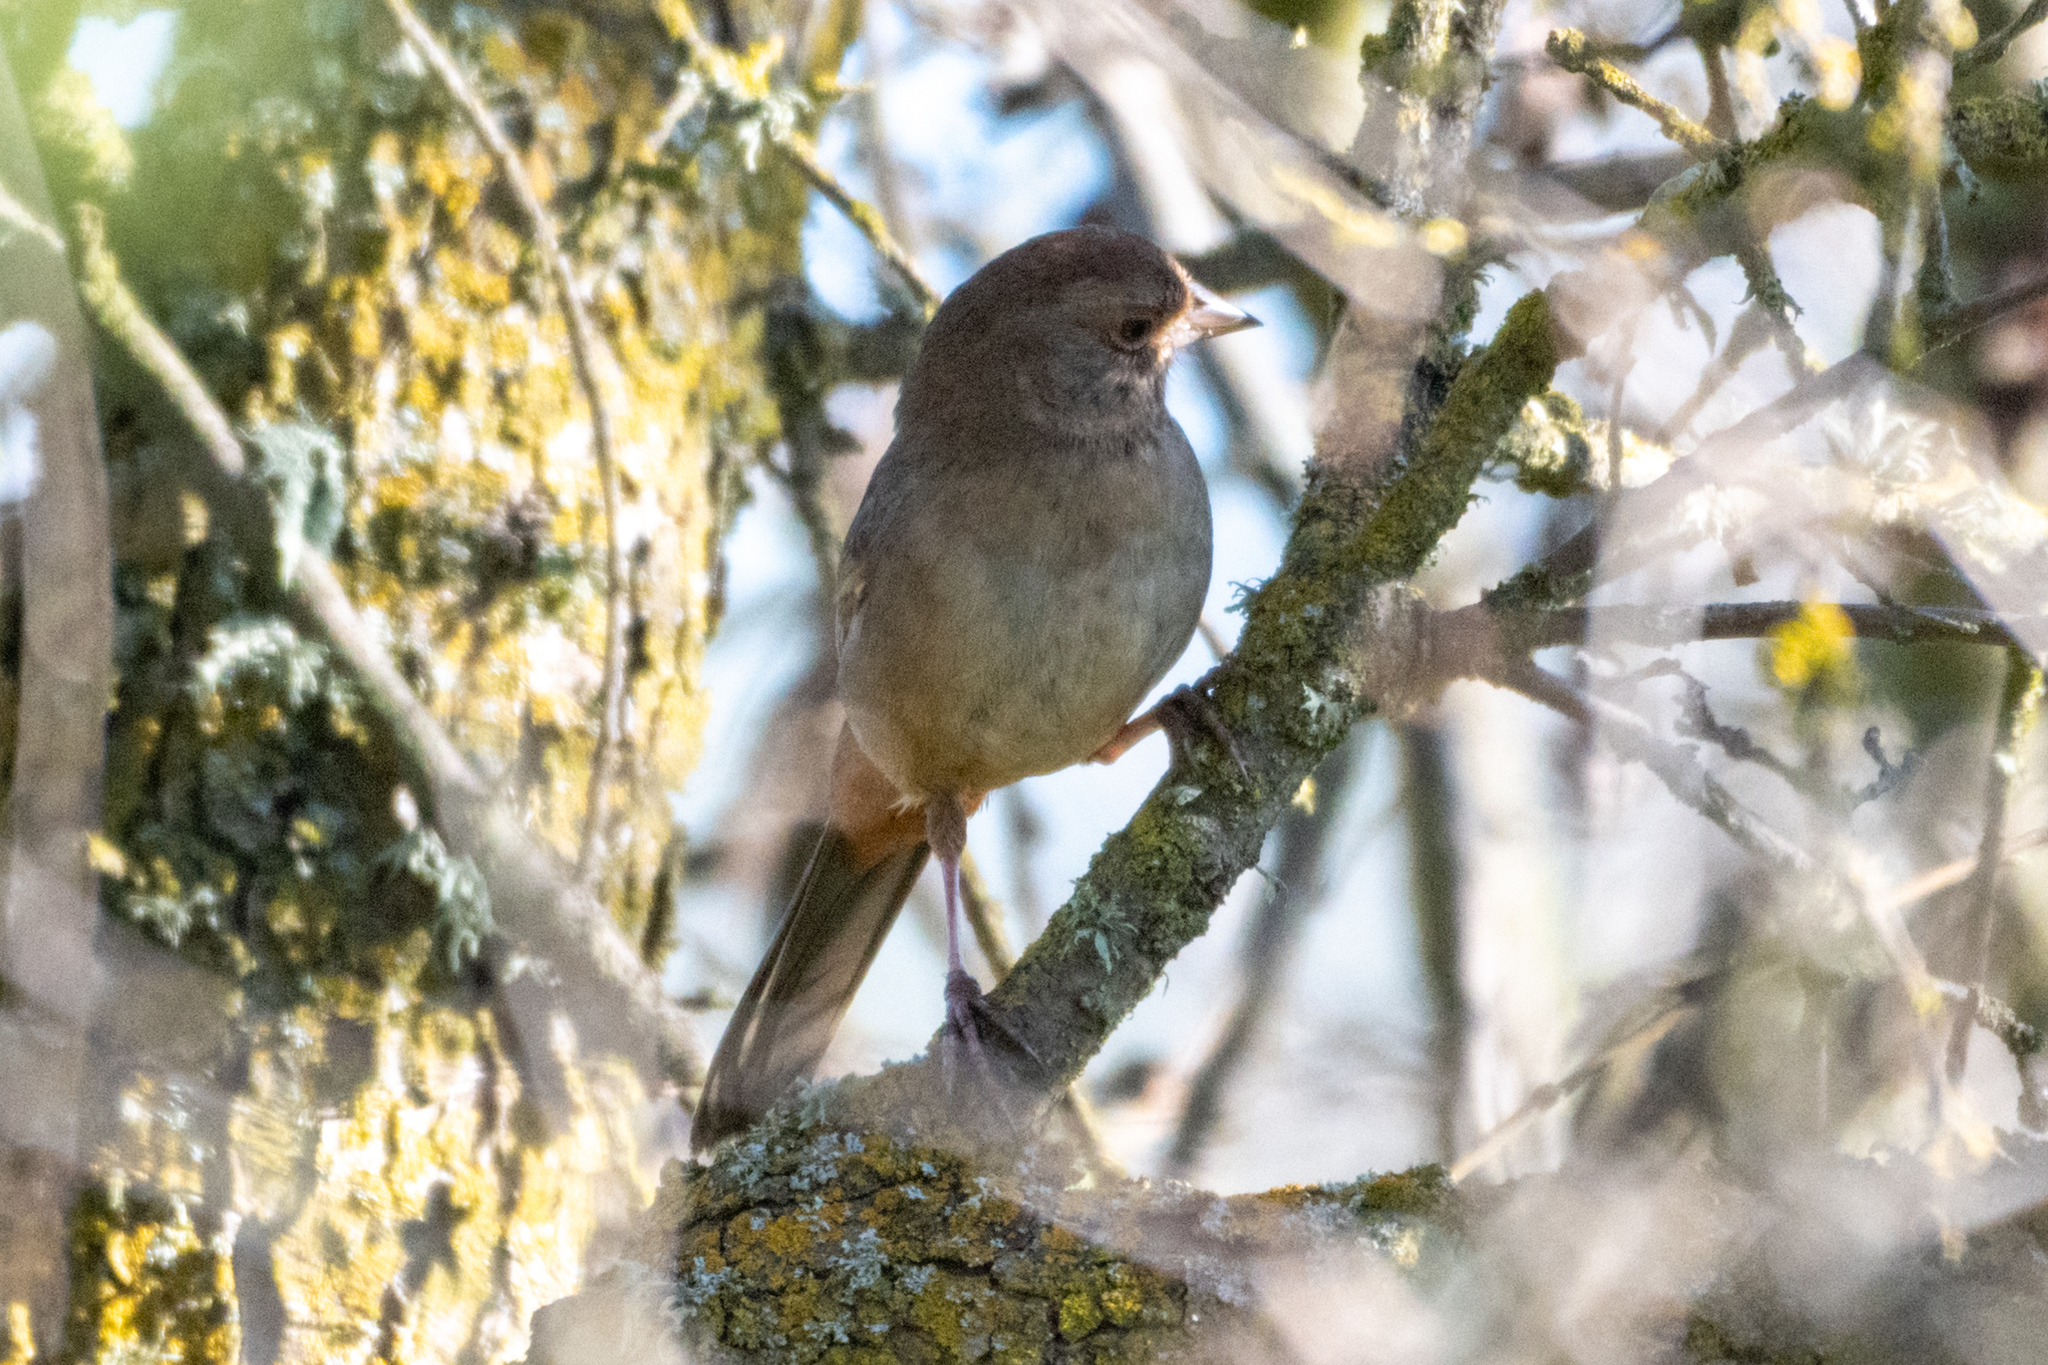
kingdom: Animalia
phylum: Chordata
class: Aves
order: Passeriformes
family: Passerellidae
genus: Melozone
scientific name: Melozone crissalis
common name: California towhee
